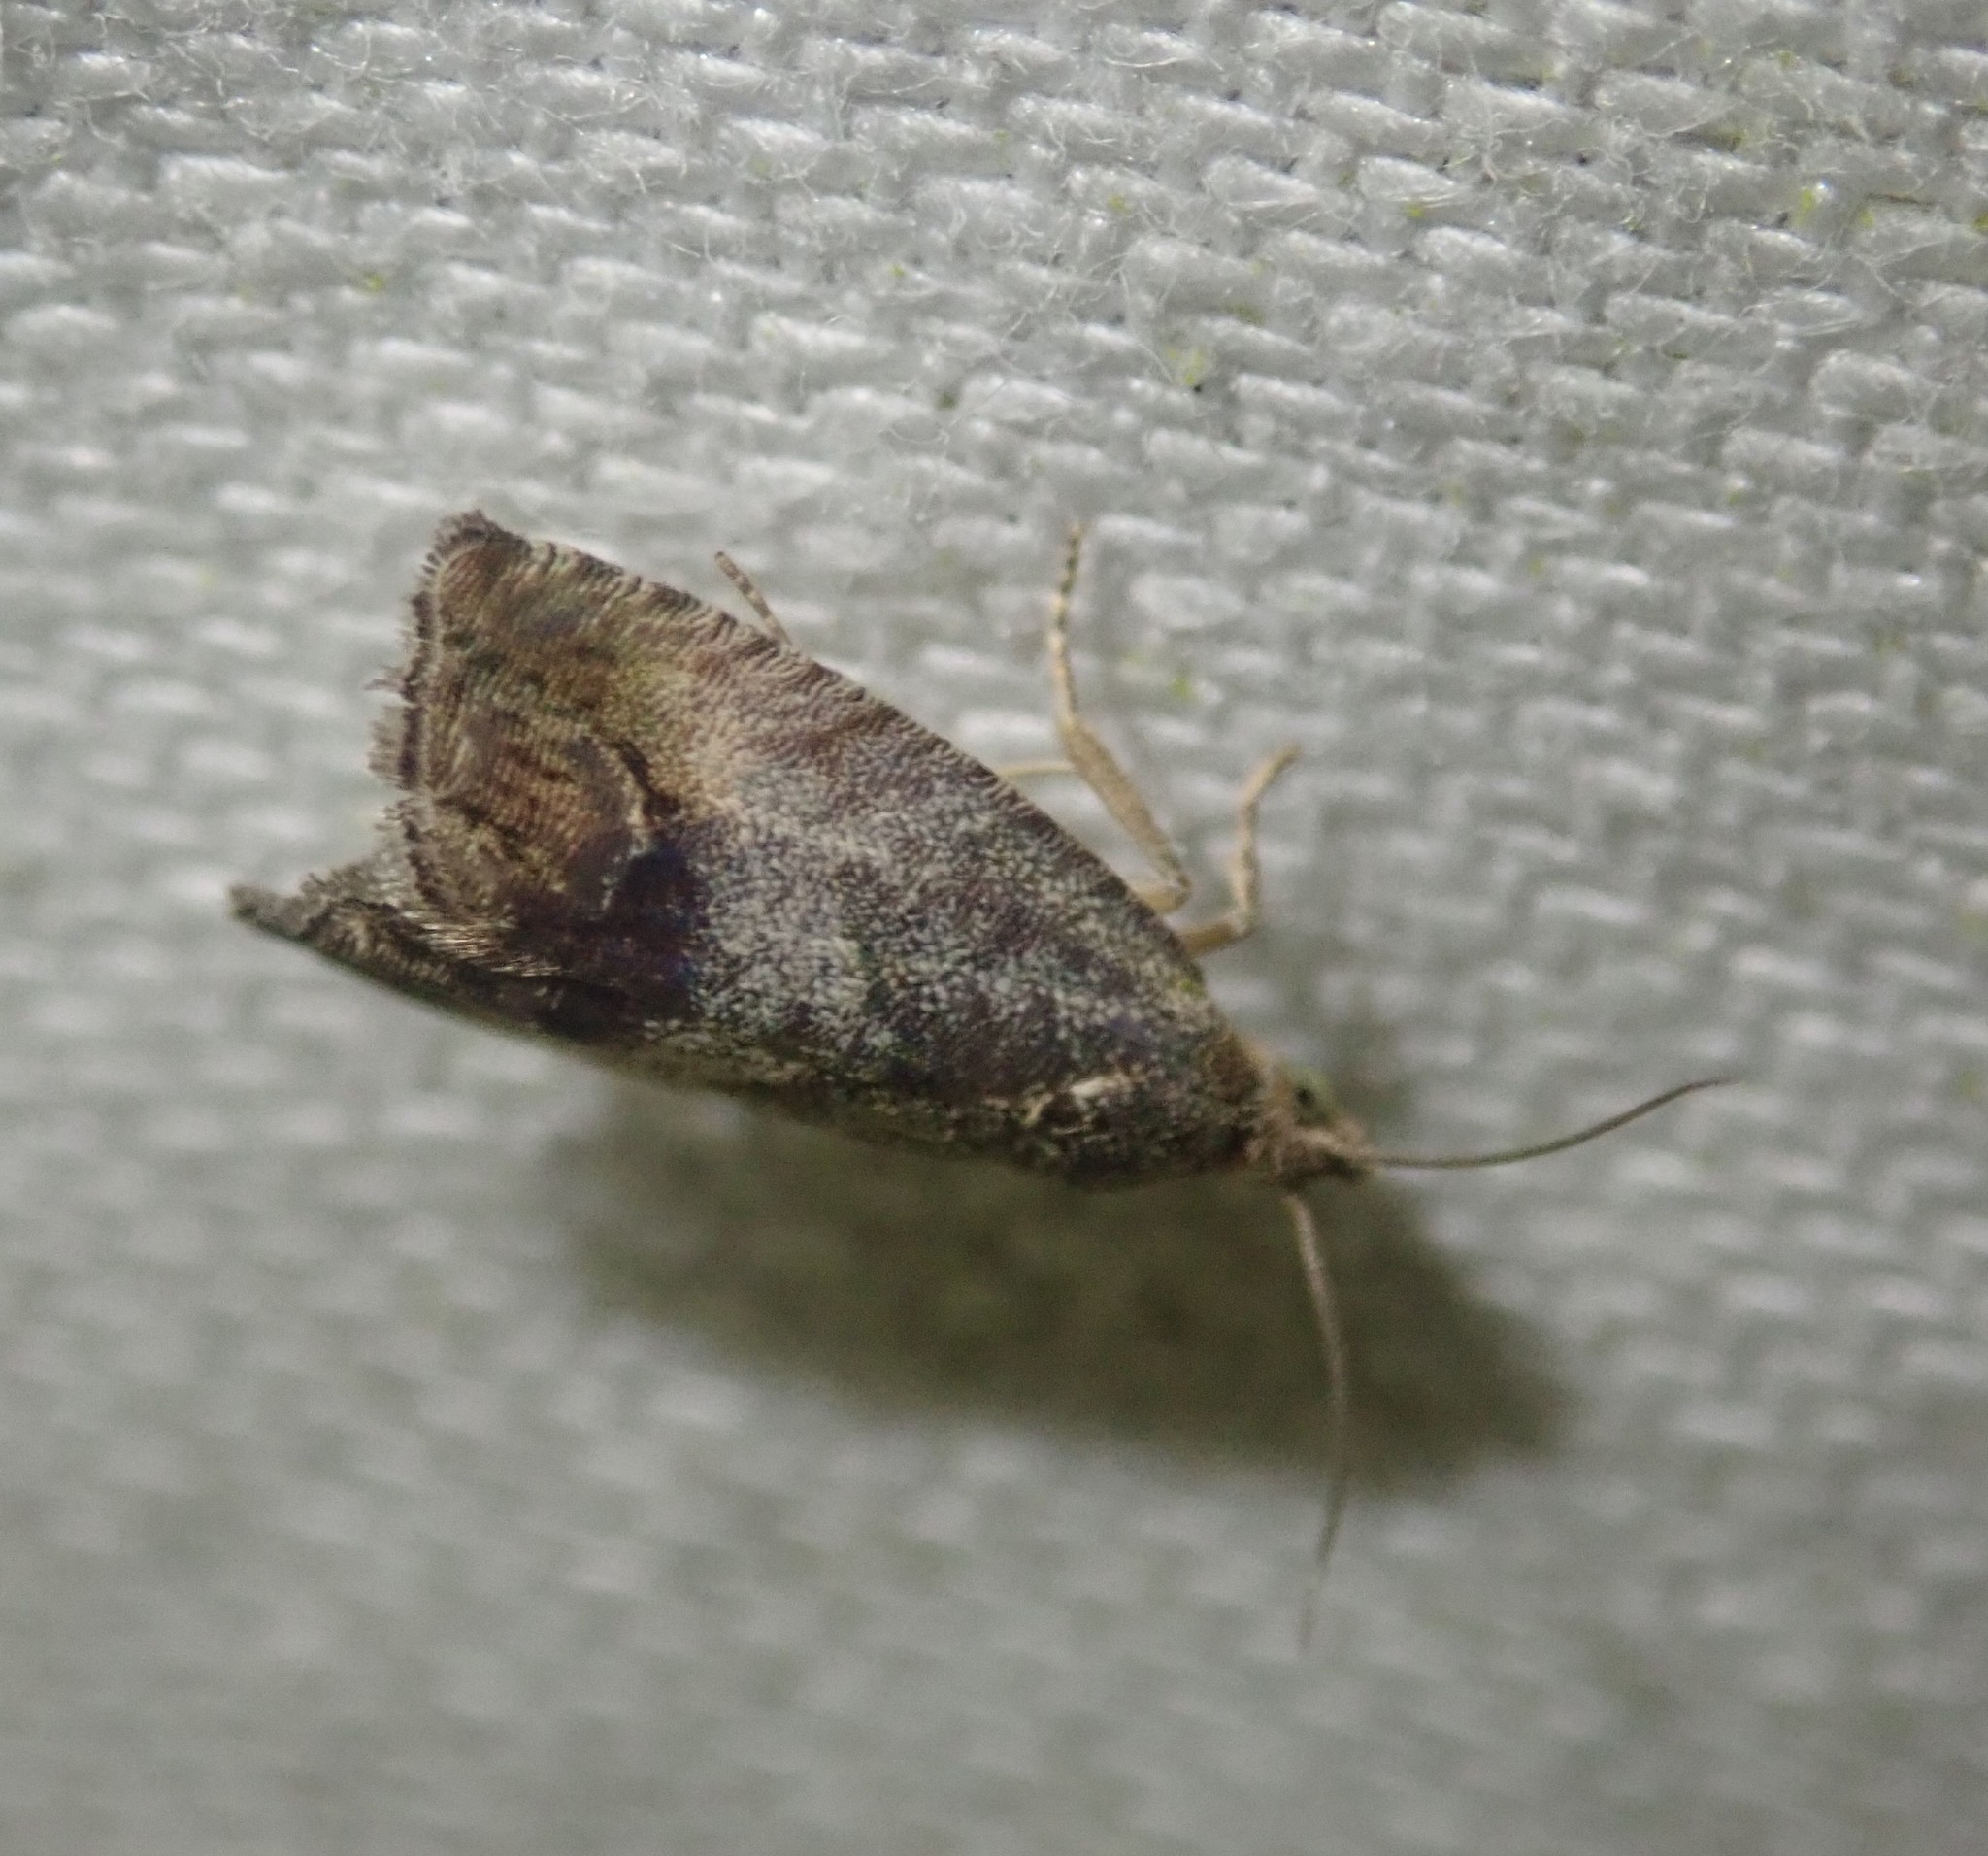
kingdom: Animalia
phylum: Arthropoda
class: Insecta
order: Lepidoptera
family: Tortricidae
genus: Cydia
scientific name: Cydia splendana
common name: De: kastanienwickler, eichenwickler es: oruga de la castaña fr: carpocapse des châtaignes it: cidia o tortrice tardiva delle castagne pt: bichado das castanhas gb: acorn moth, chestnut fruit tortrix
